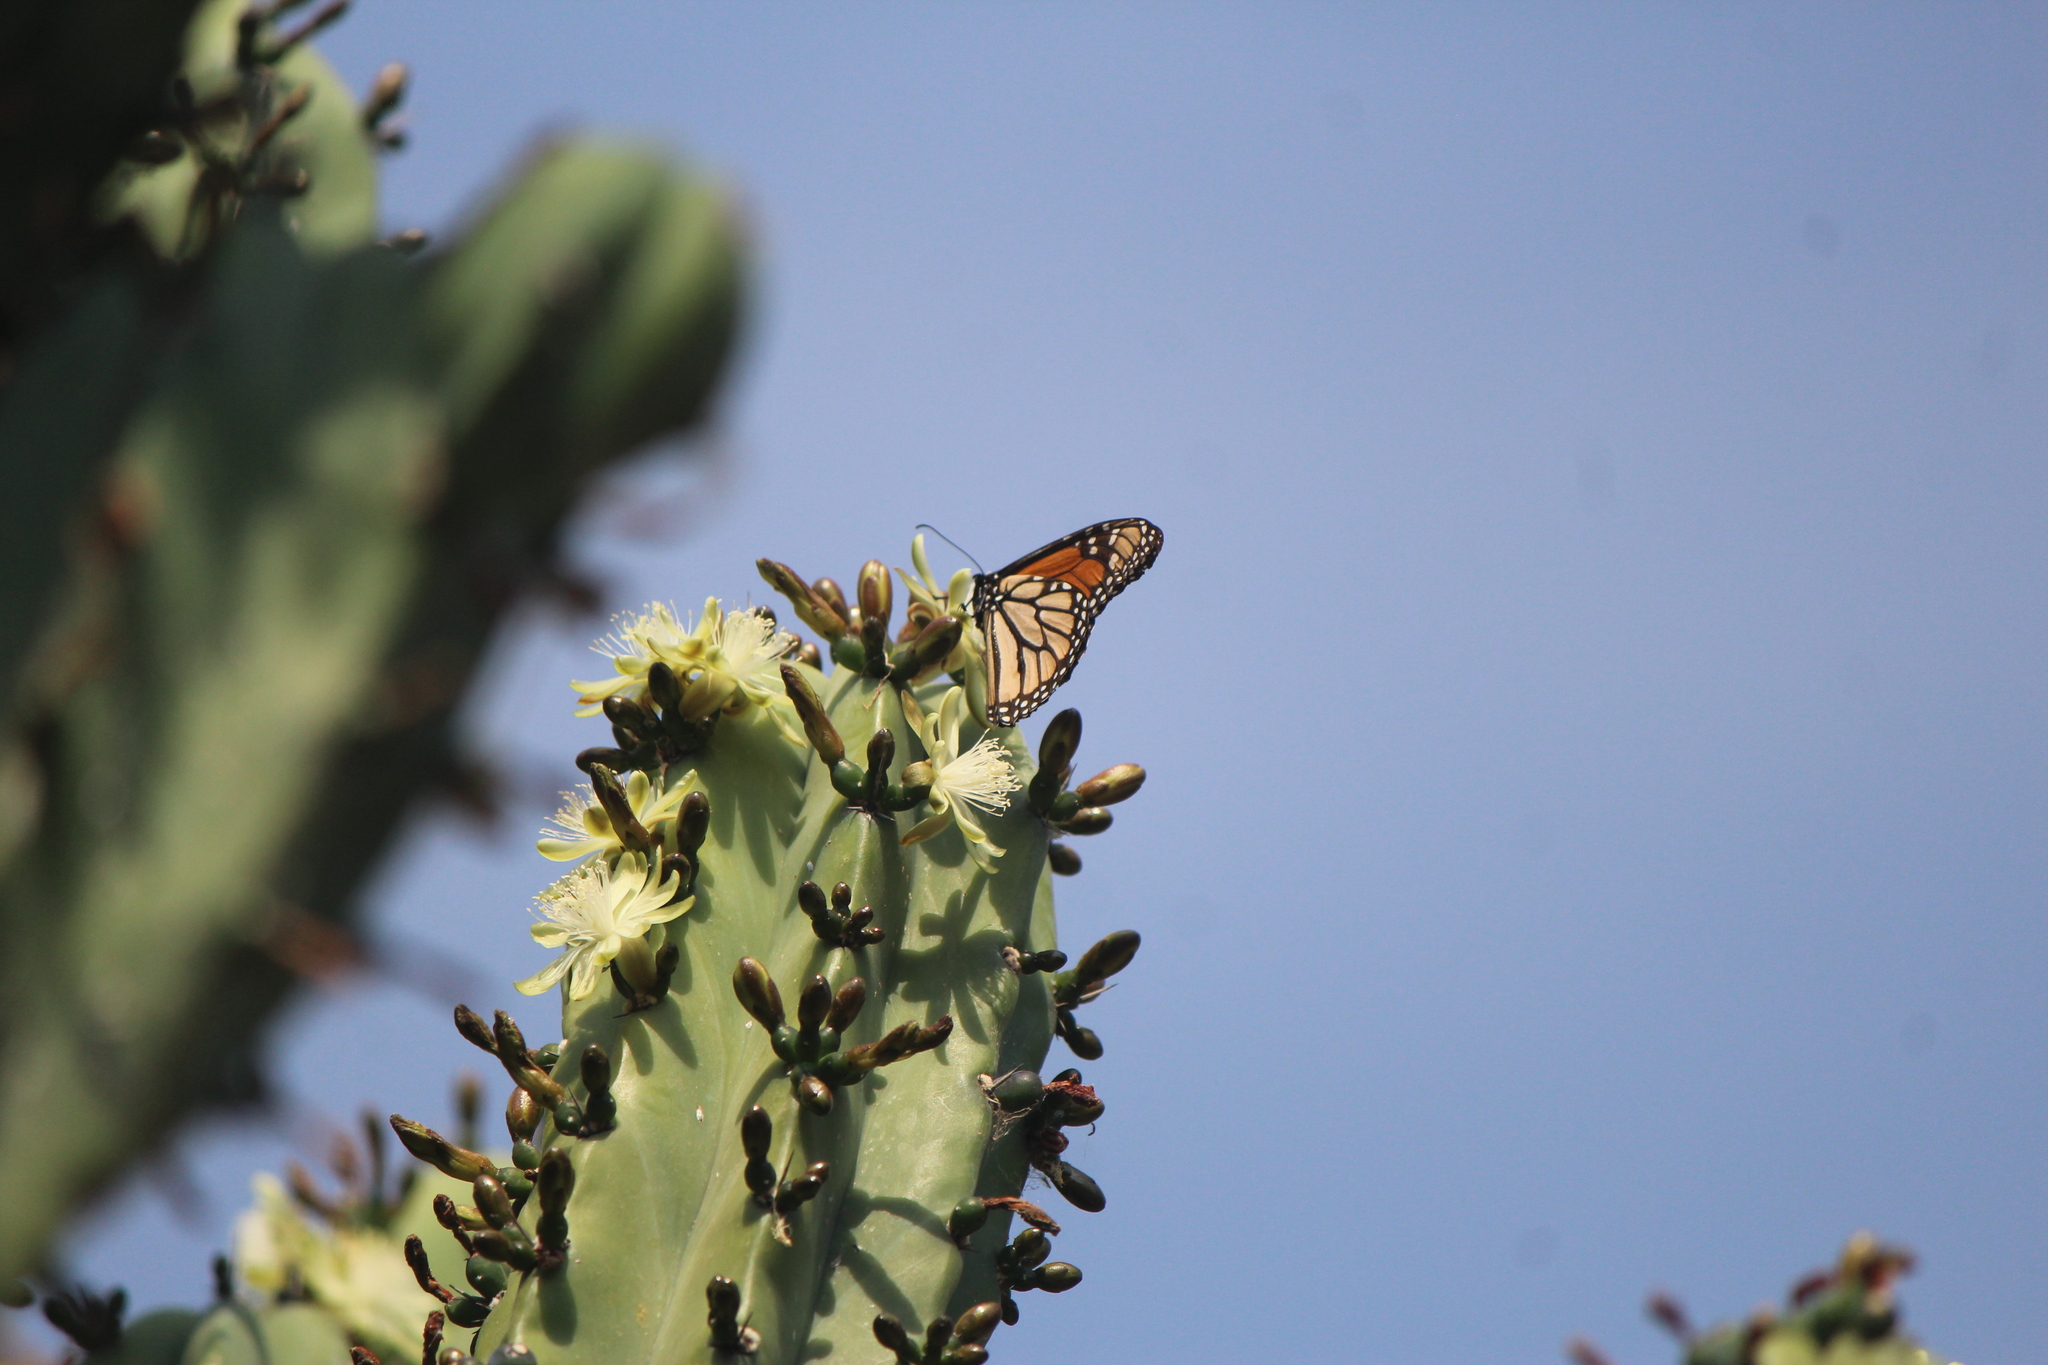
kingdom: Animalia
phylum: Arthropoda
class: Insecta
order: Lepidoptera
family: Nymphalidae
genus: Danaus
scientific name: Danaus plexippus
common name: Monarch
